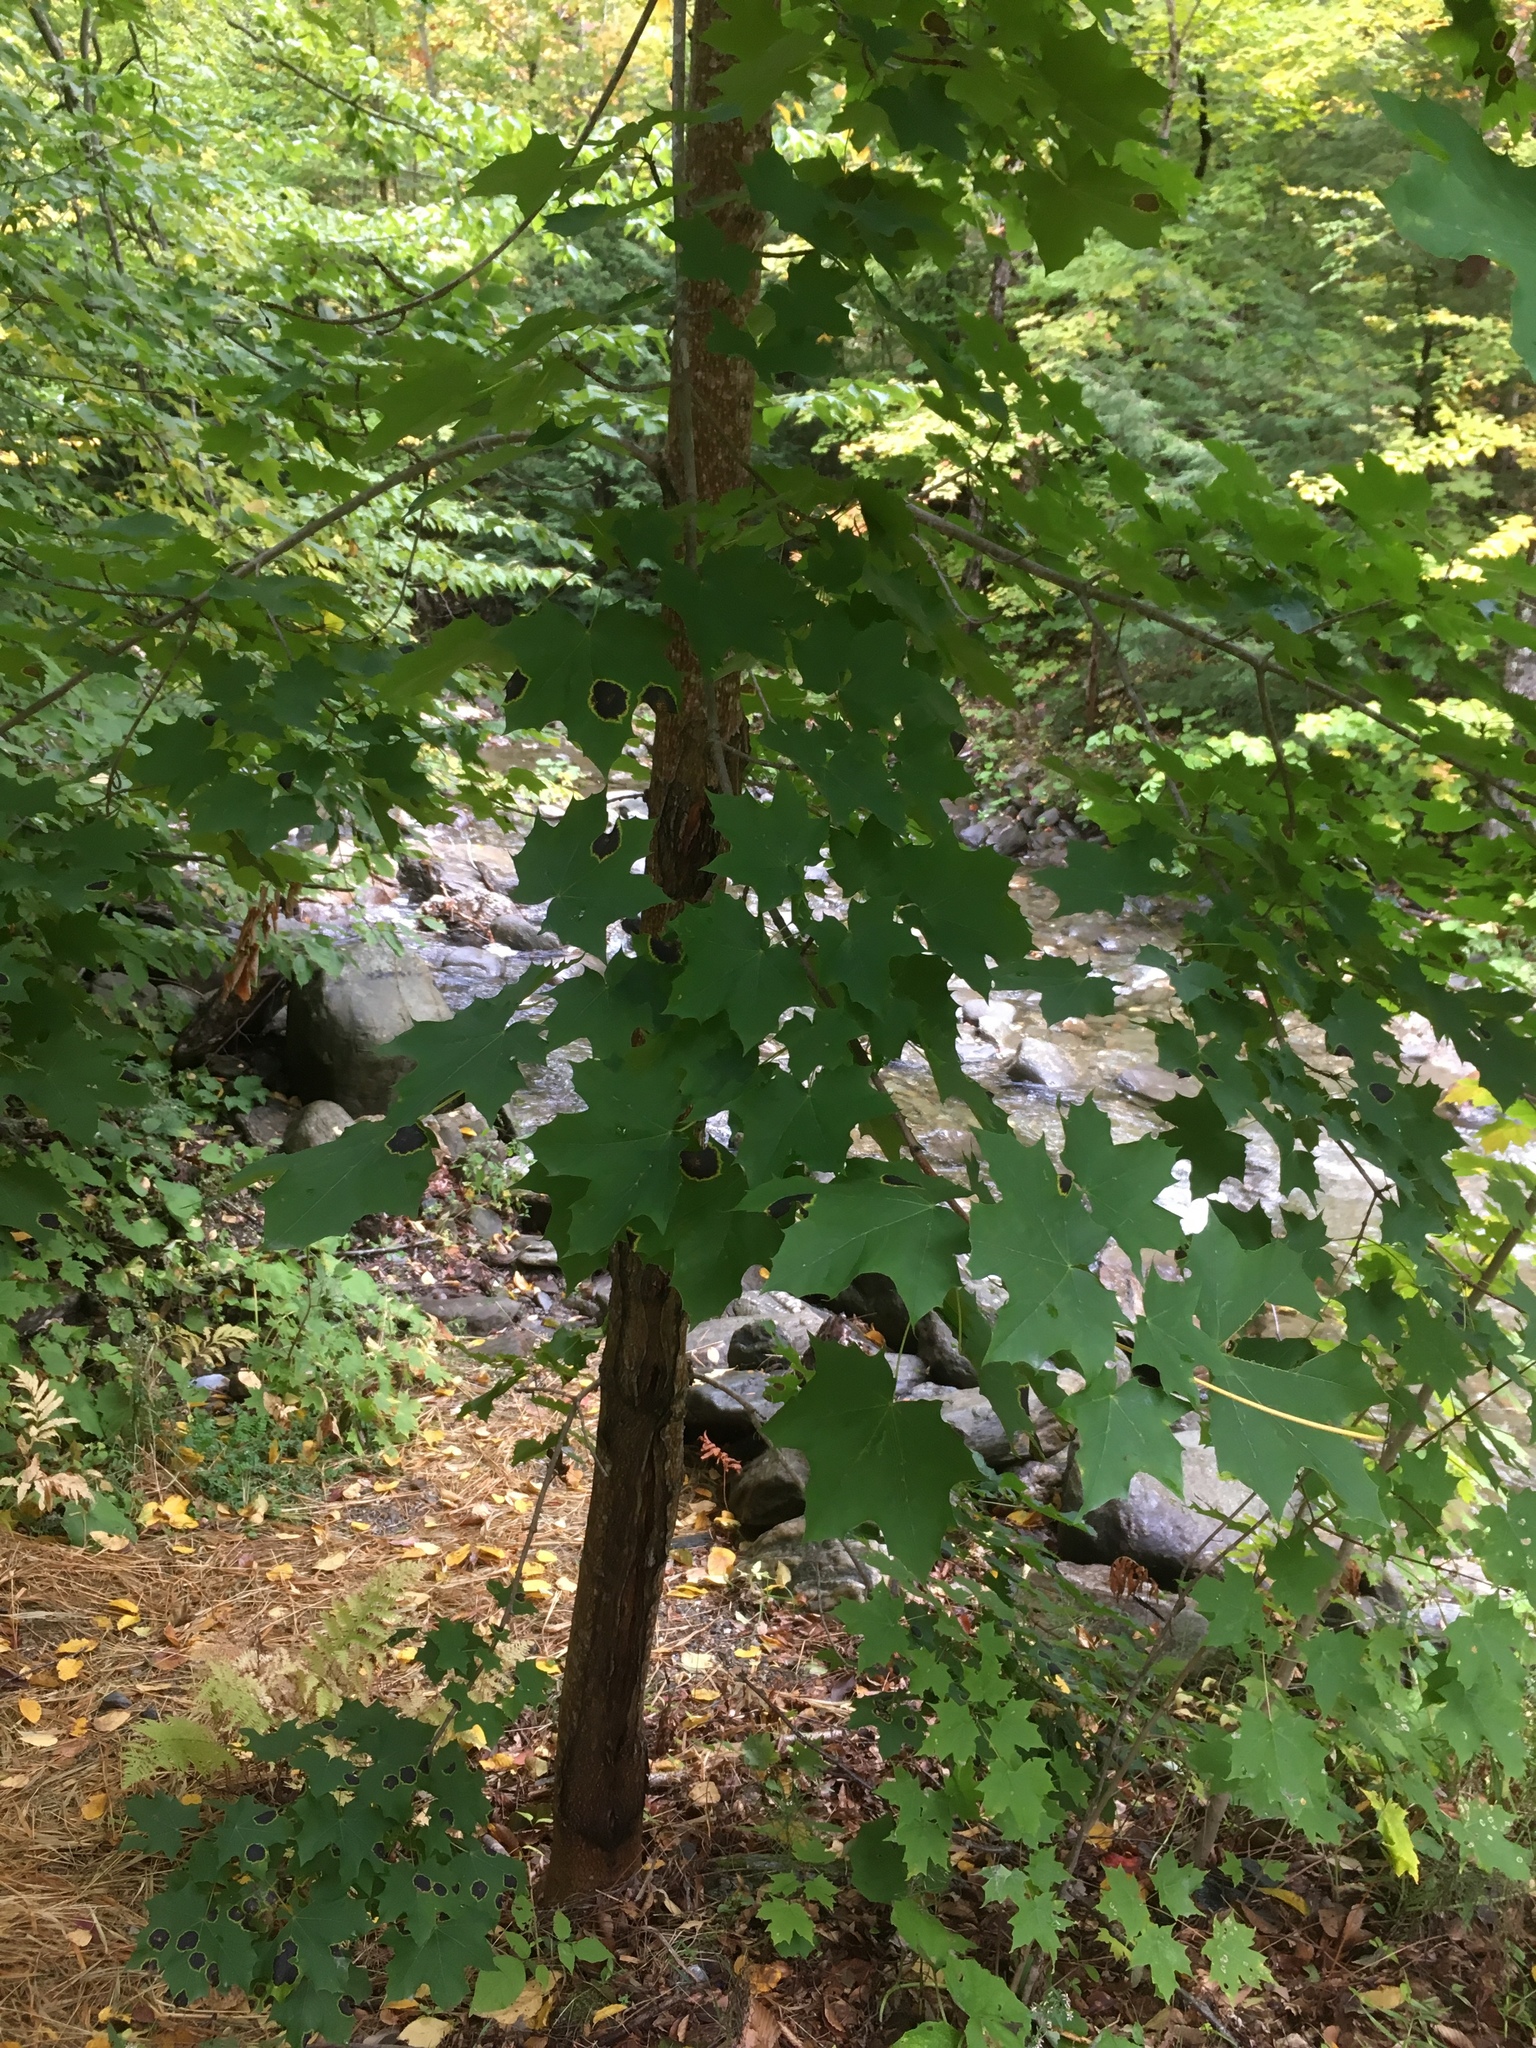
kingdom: Plantae
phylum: Tracheophyta
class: Magnoliopsida
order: Sapindales
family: Sapindaceae
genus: Acer
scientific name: Acer platanoides
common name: Norway maple
